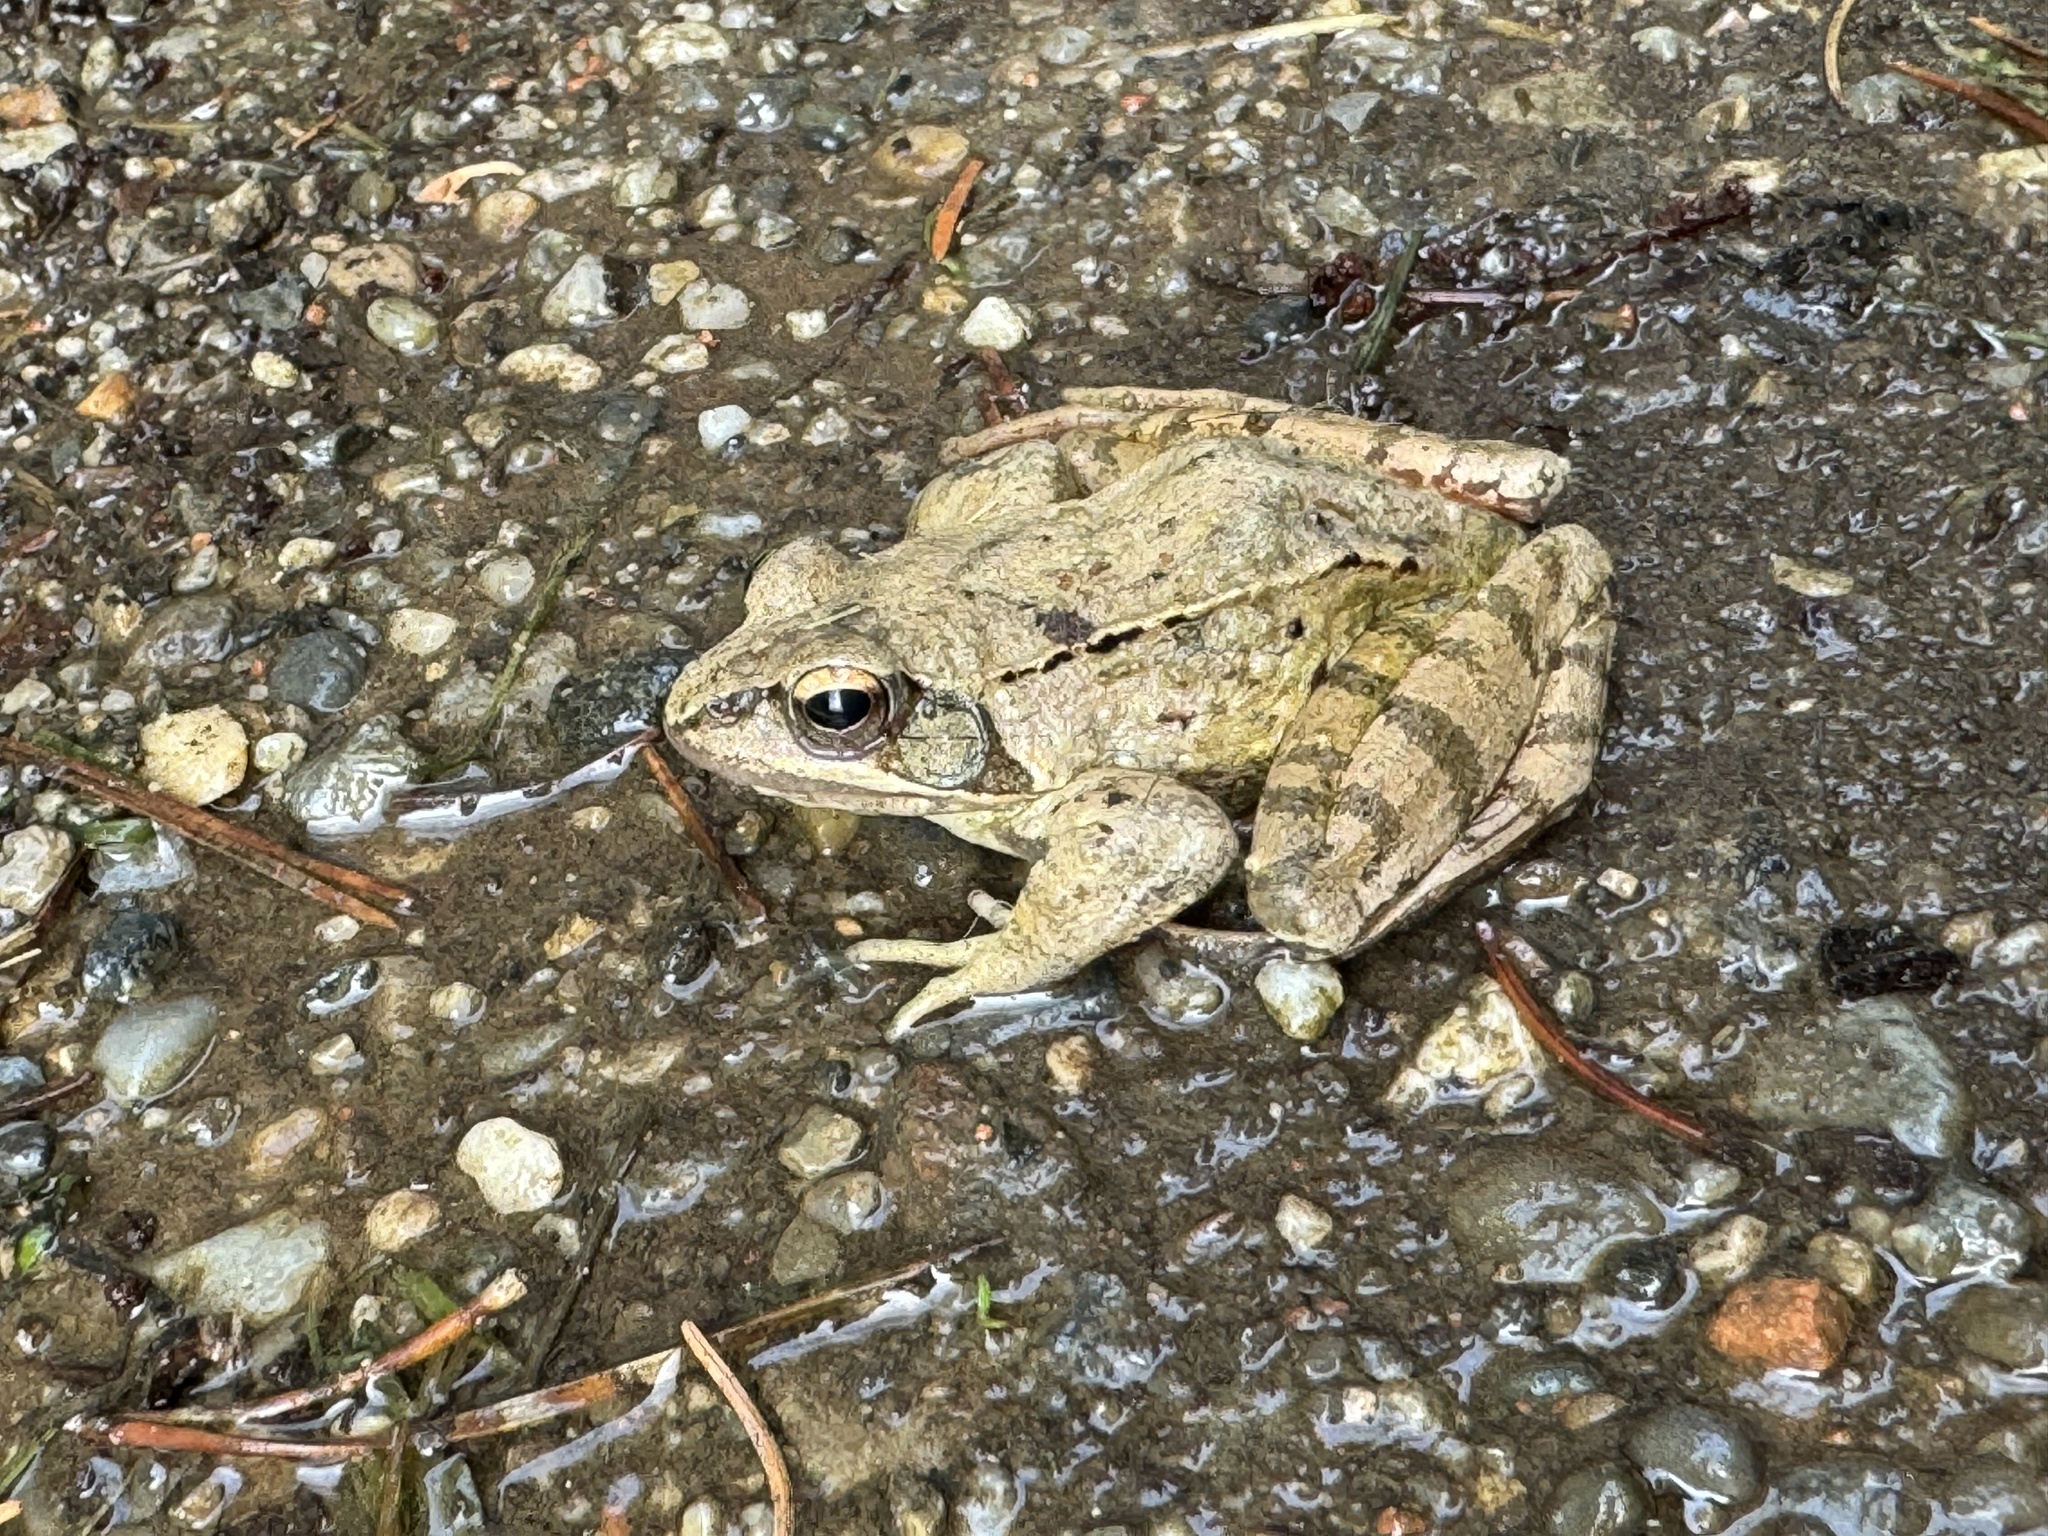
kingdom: Animalia
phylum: Chordata
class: Amphibia
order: Anura
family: Ranidae
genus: Rana
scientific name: Rana dalmatina
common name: Agile frog
